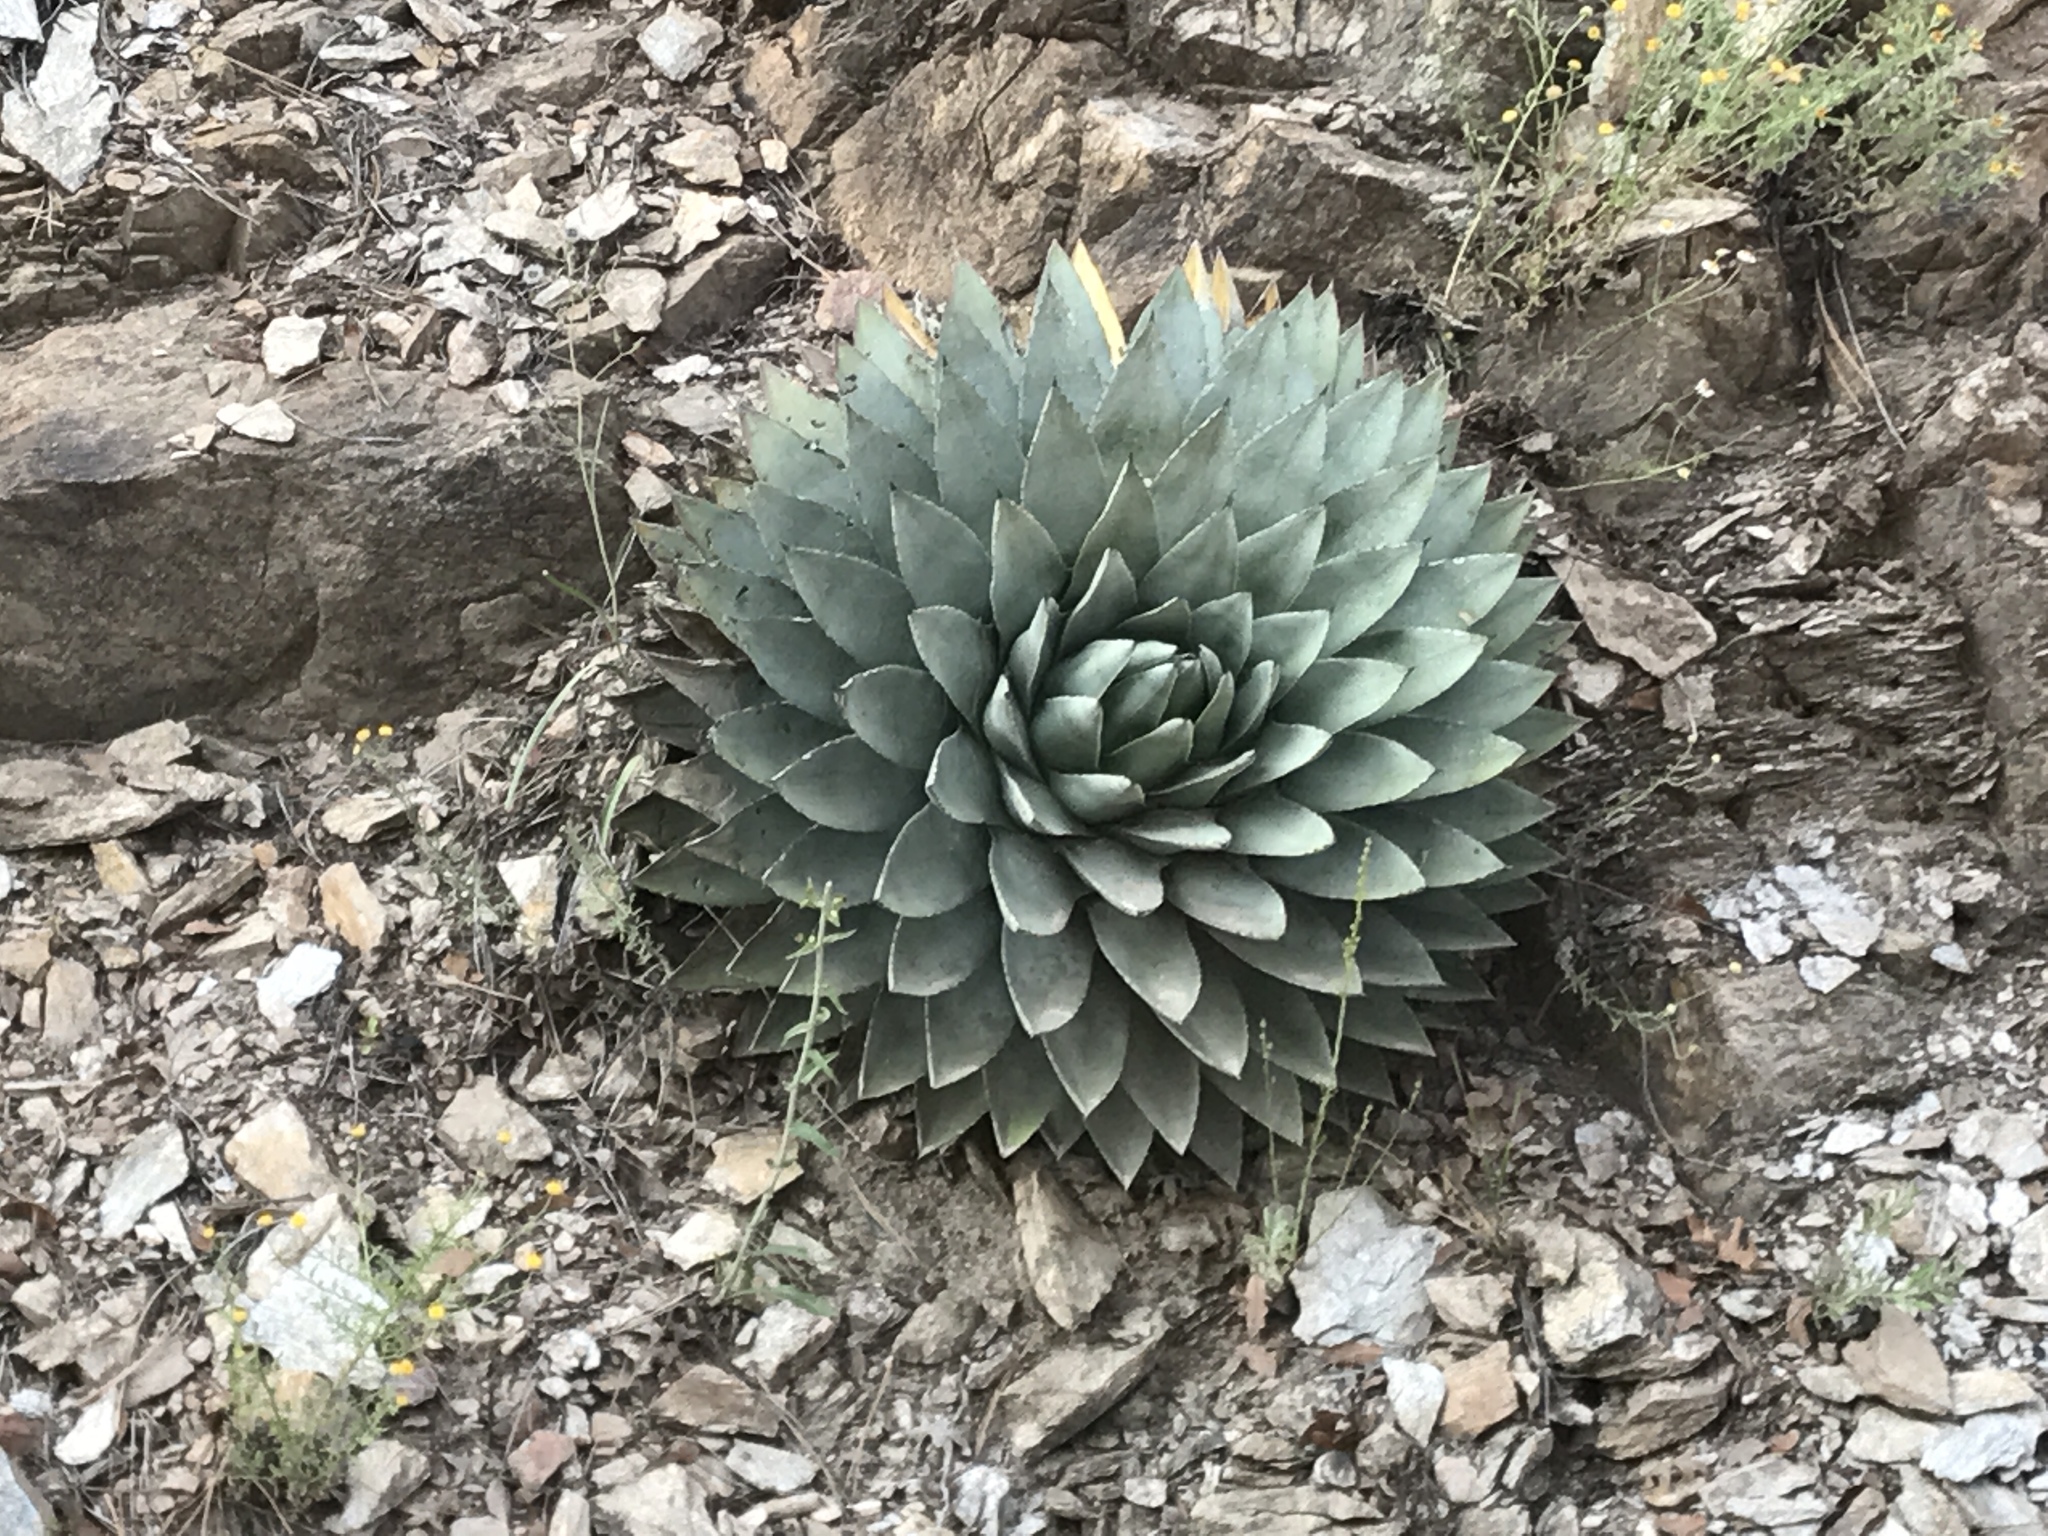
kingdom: Plantae
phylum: Tracheophyta
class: Liliopsida
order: Asparagales
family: Asparagaceae
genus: Agave
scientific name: Agave parryi
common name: Parry's agave
